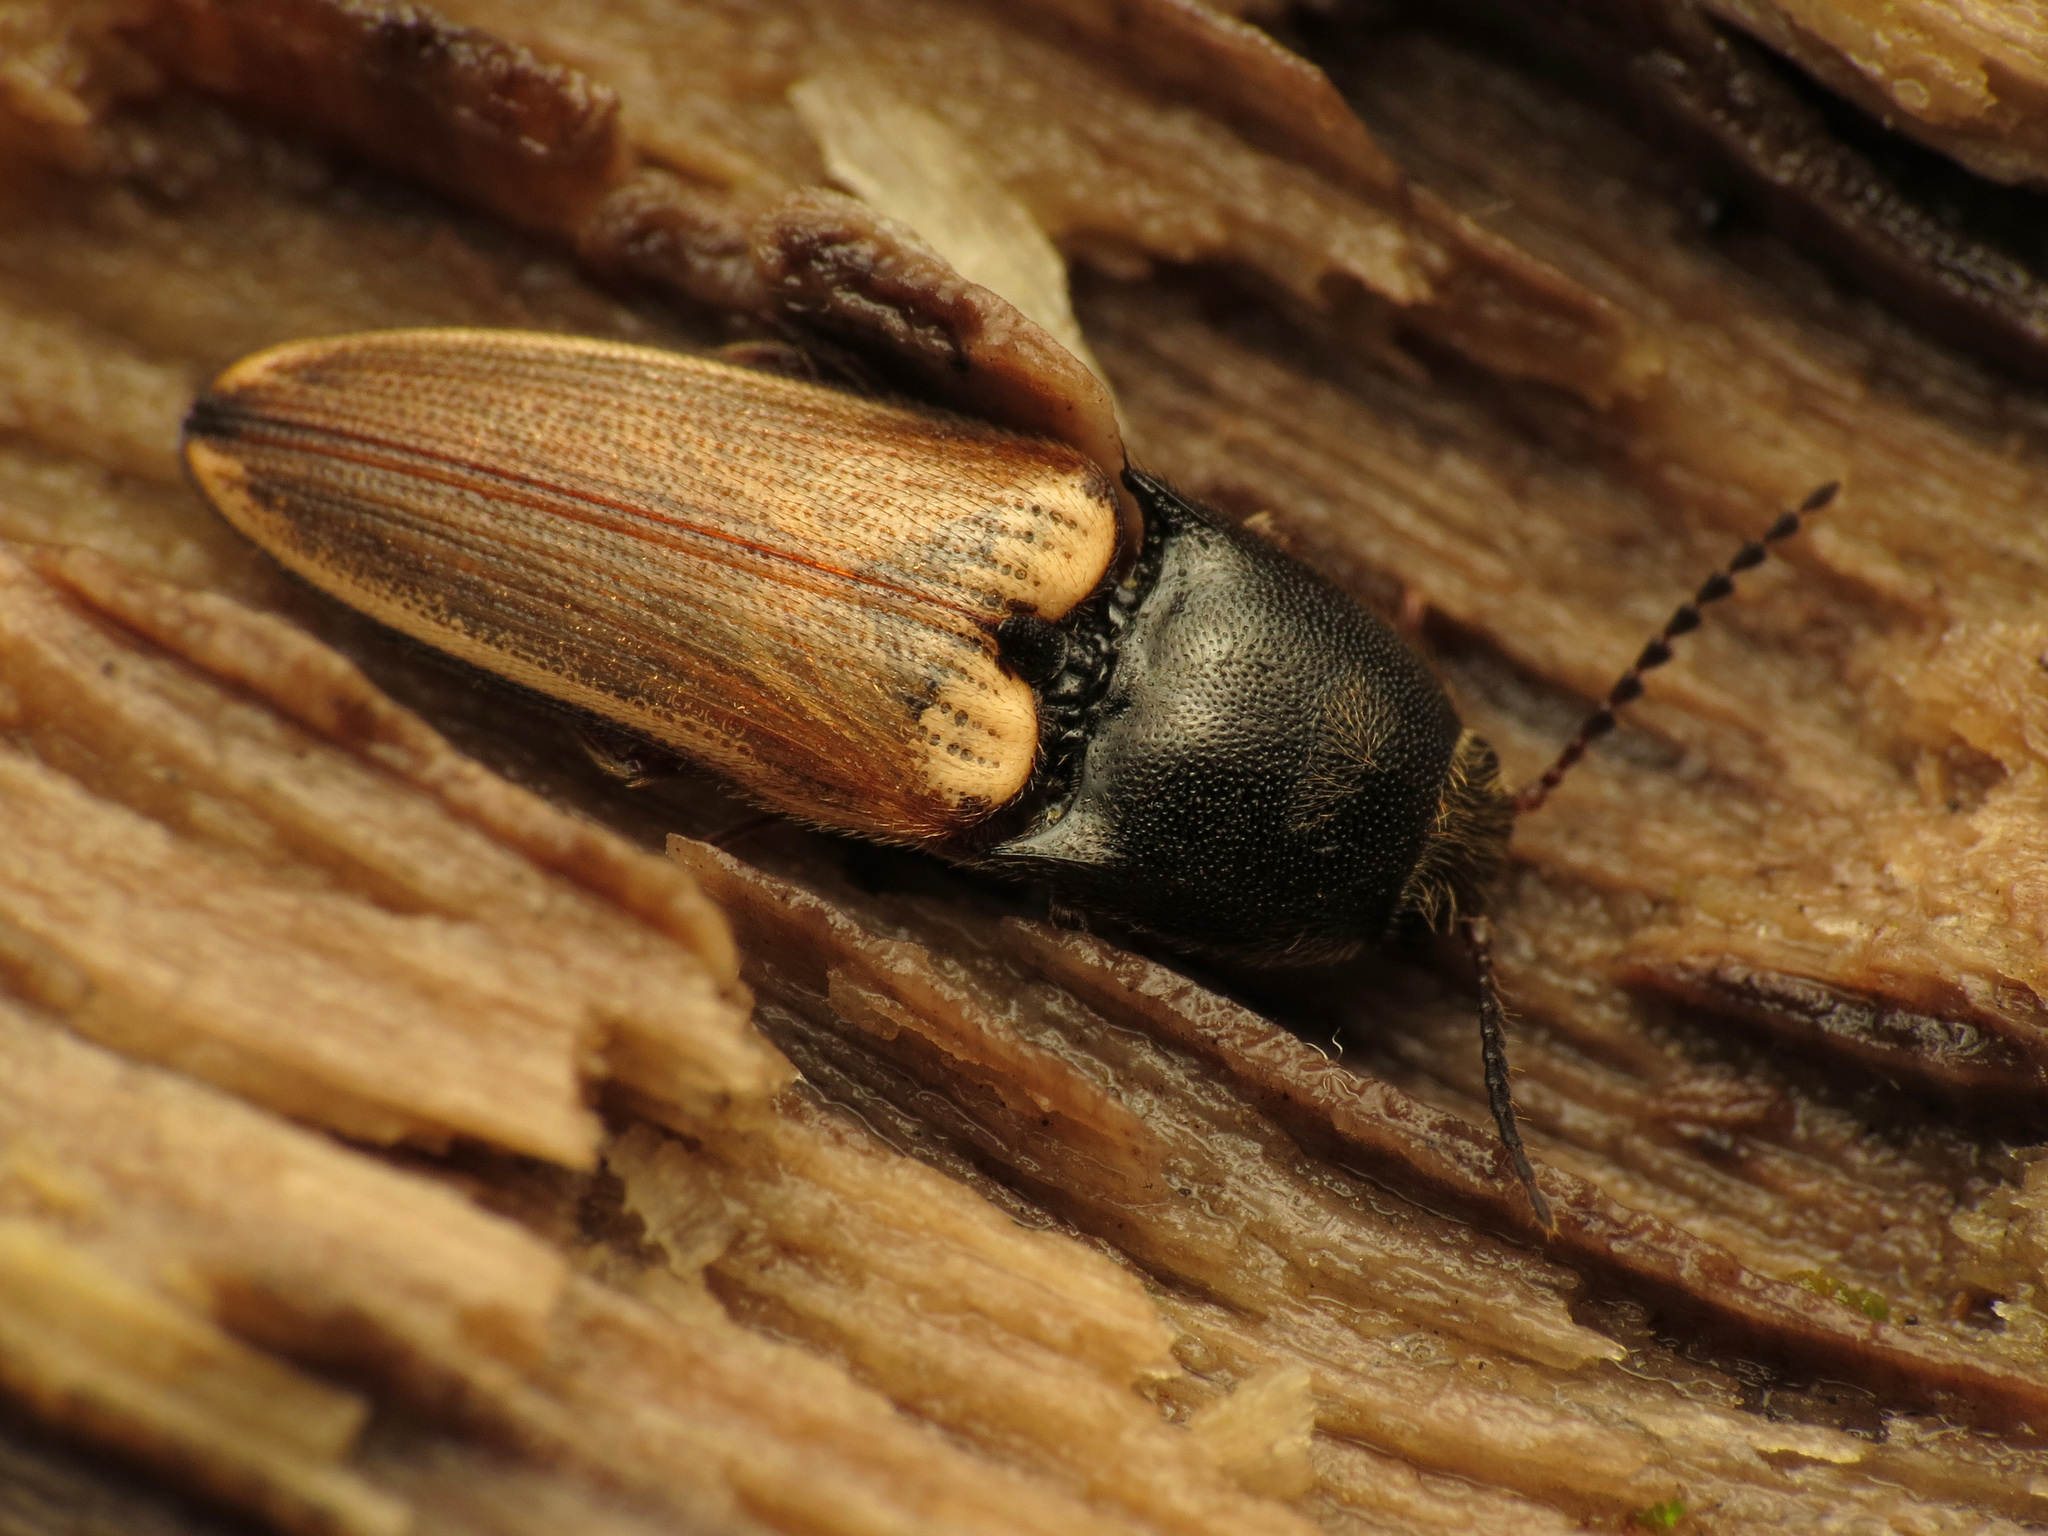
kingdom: Animalia
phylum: Arthropoda
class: Insecta
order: Coleoptera
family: Elateridae
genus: Ampedus
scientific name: Ampedus nigricollis
